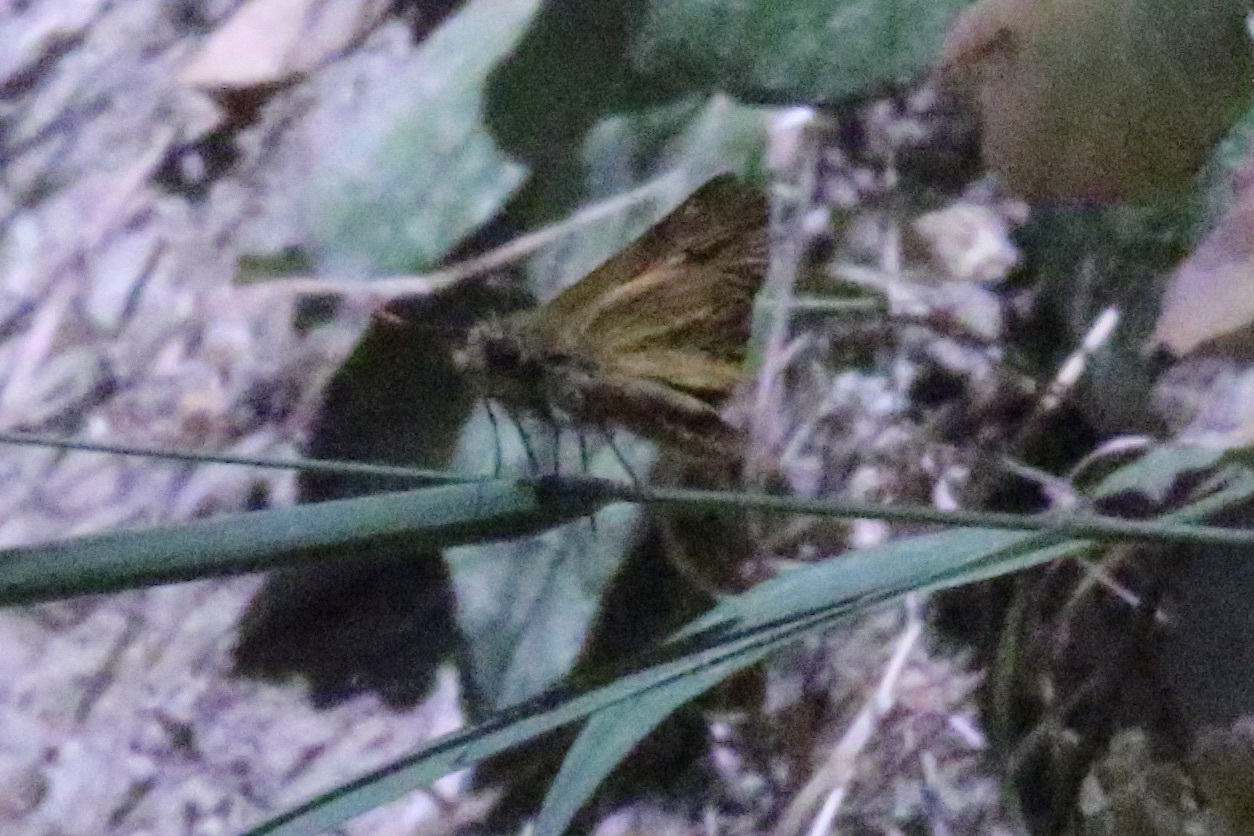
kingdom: Animalia
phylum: Arthropoda
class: Insecta
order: Lepidoptera
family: Hesperiidae
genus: Ochlodes
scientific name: Ochlodes agricola
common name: Rural skipper
